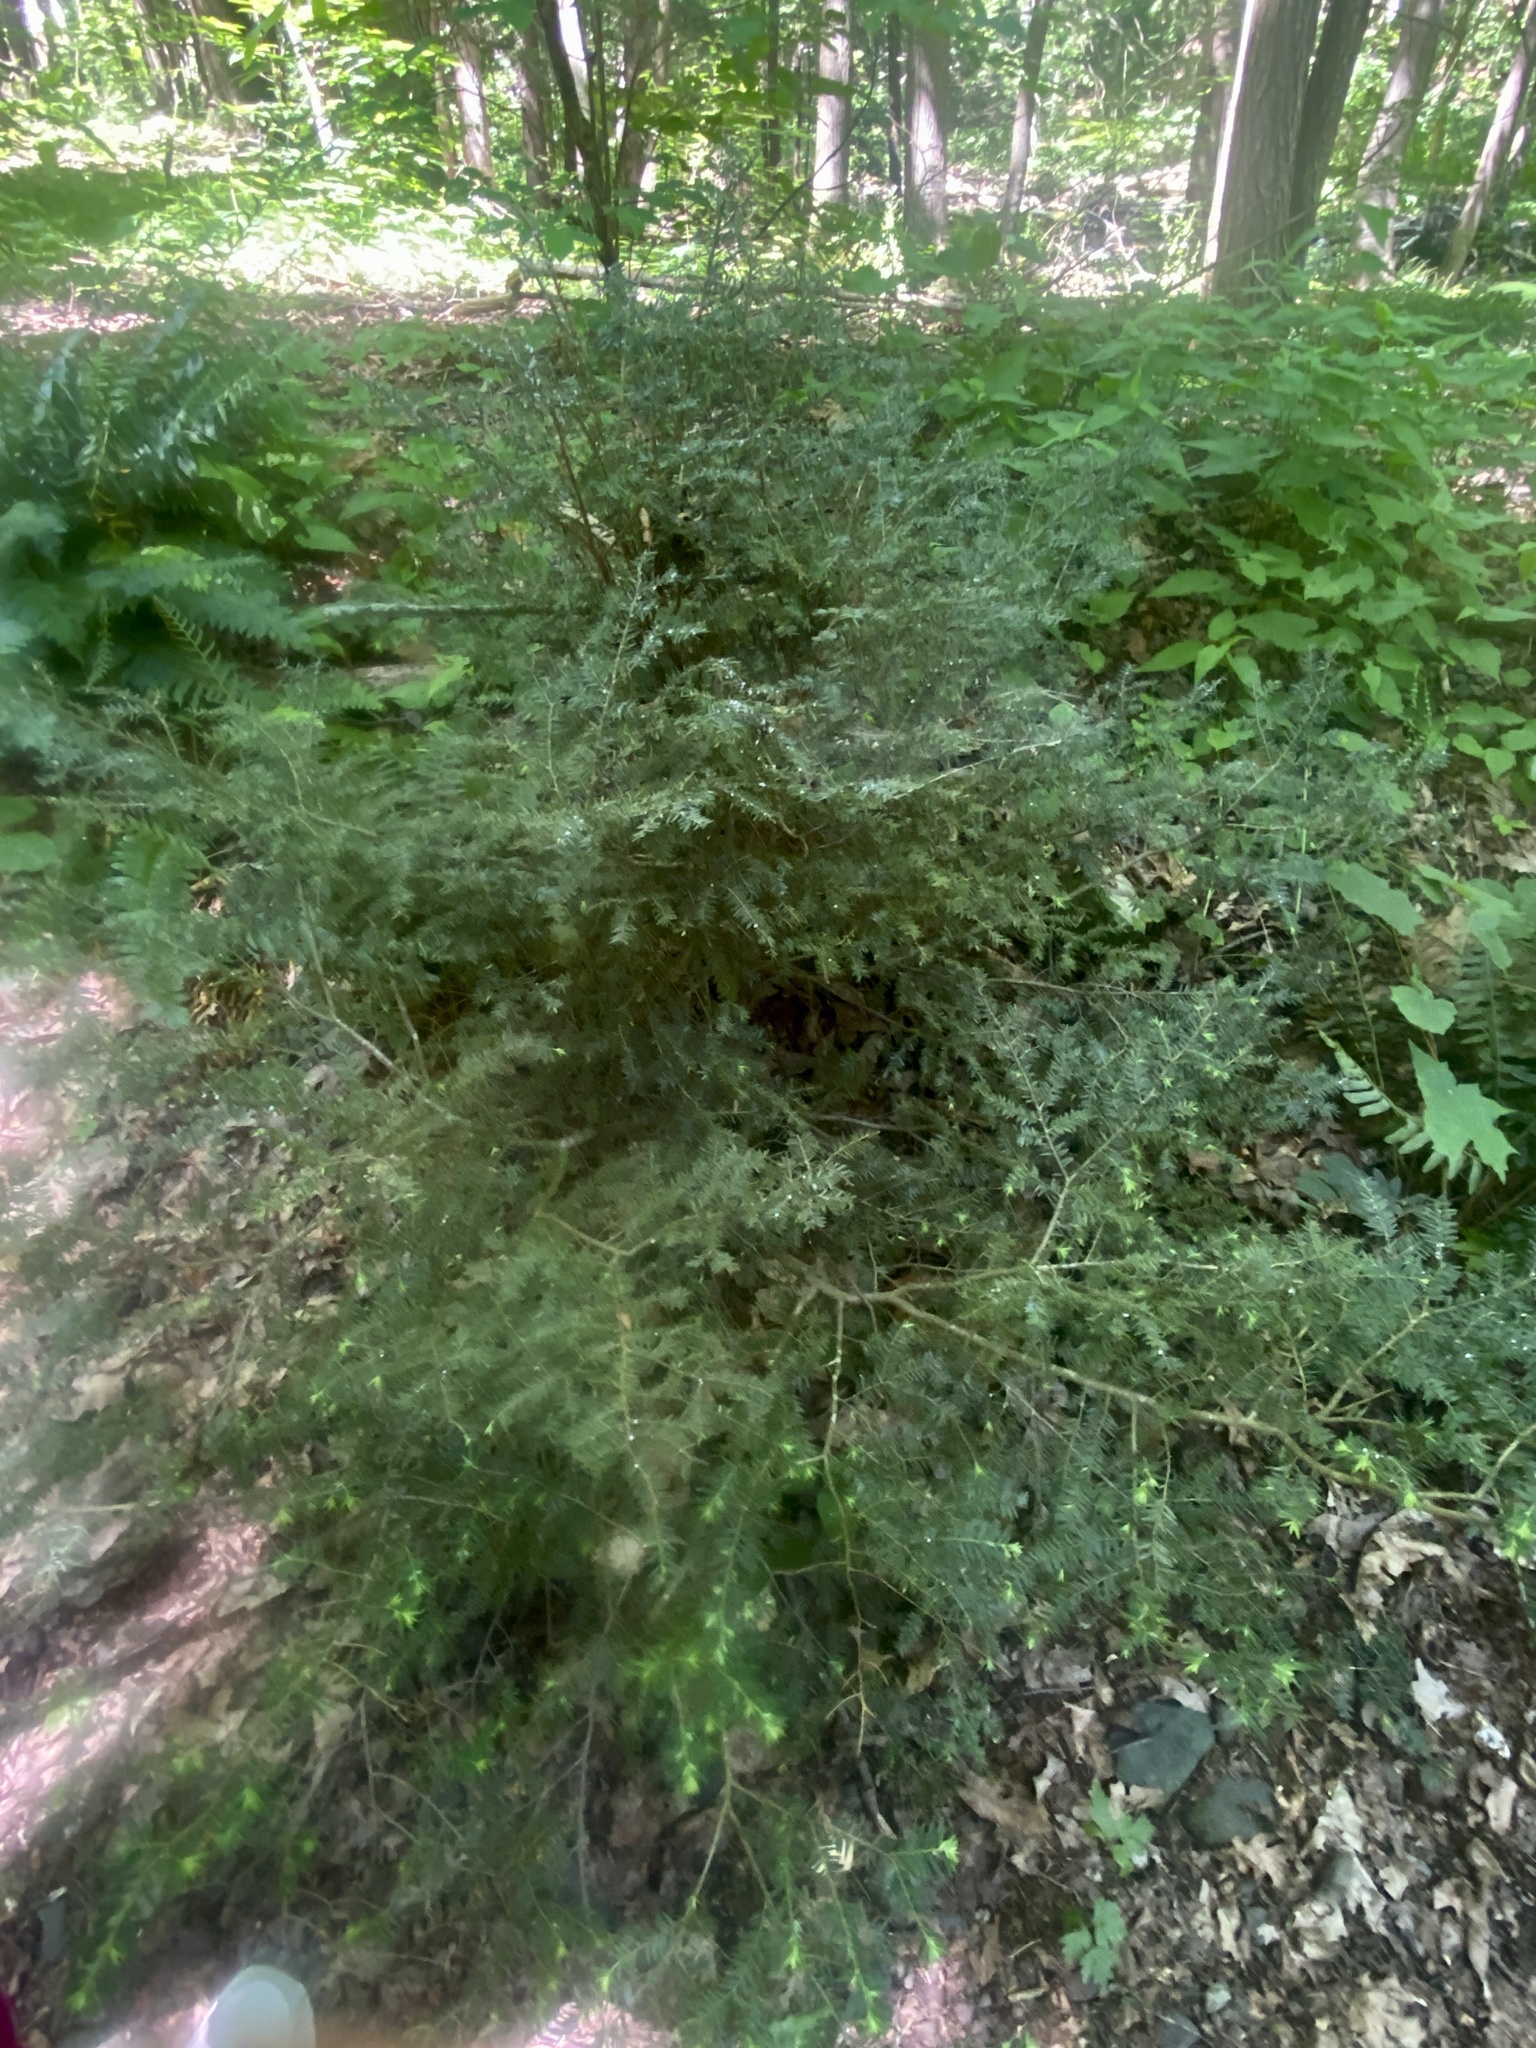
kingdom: Animalia
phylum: Arthropoda
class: Insecta
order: Hemiptera
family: Adelgidae
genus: Adelges
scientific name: Adelges tsugae
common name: Hemlock woolly adelgid
